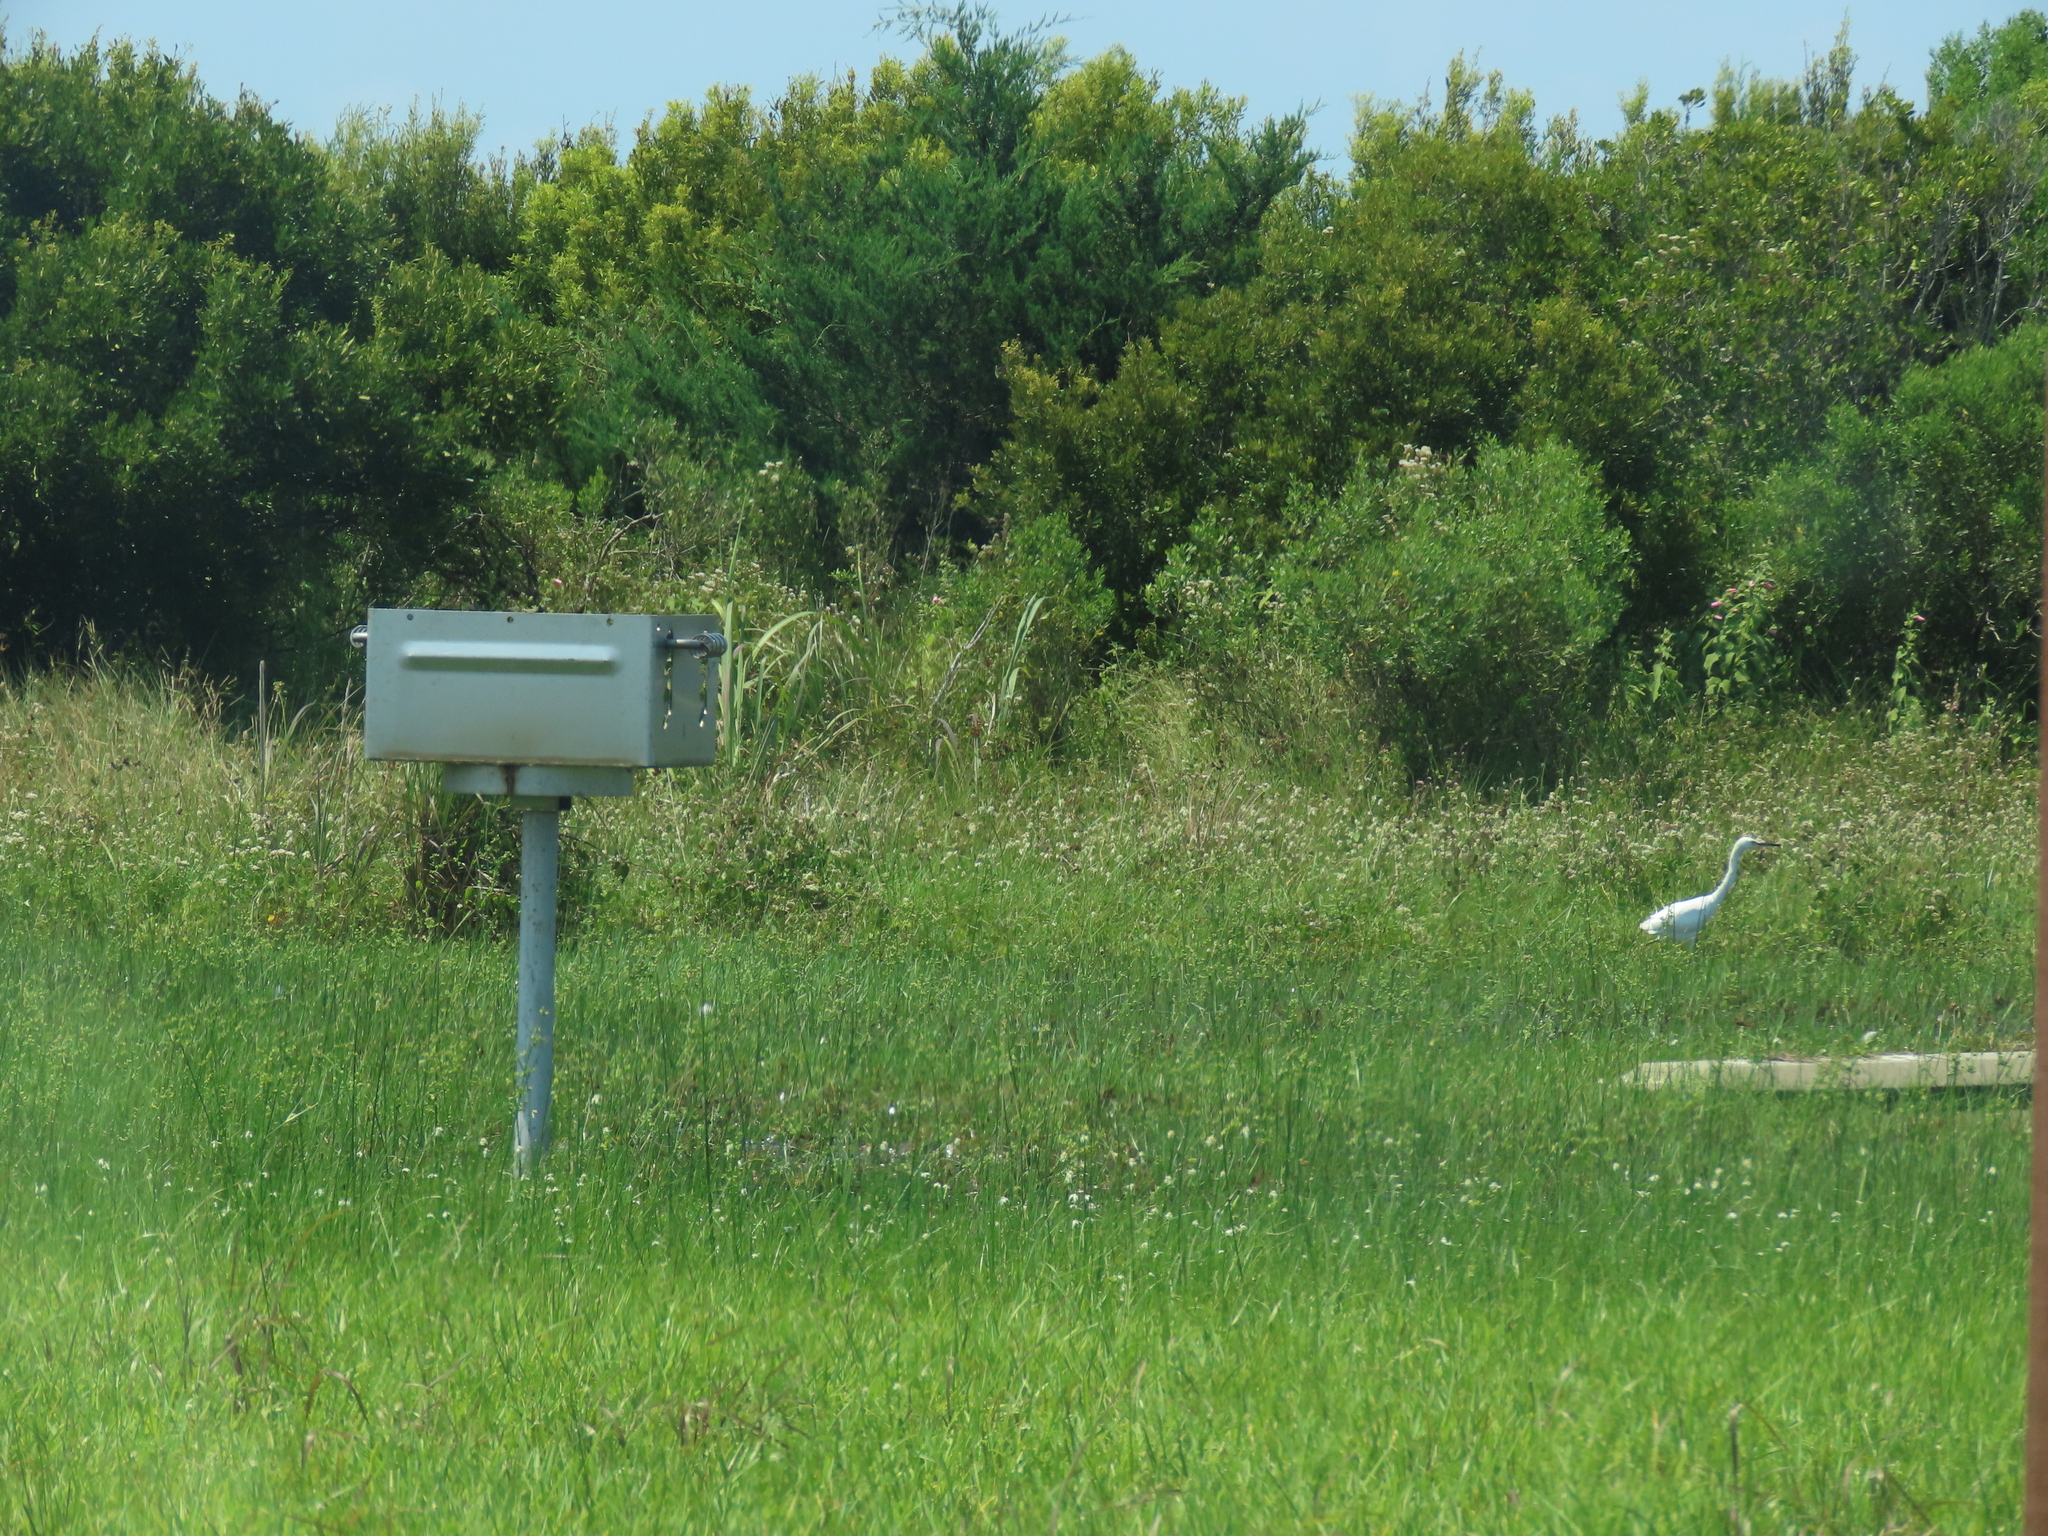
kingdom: Animalia
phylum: Chordata
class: Aves
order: Pelecaniformes
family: Ardeidae
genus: Egretta
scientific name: Egretta thula
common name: Snowy egret
